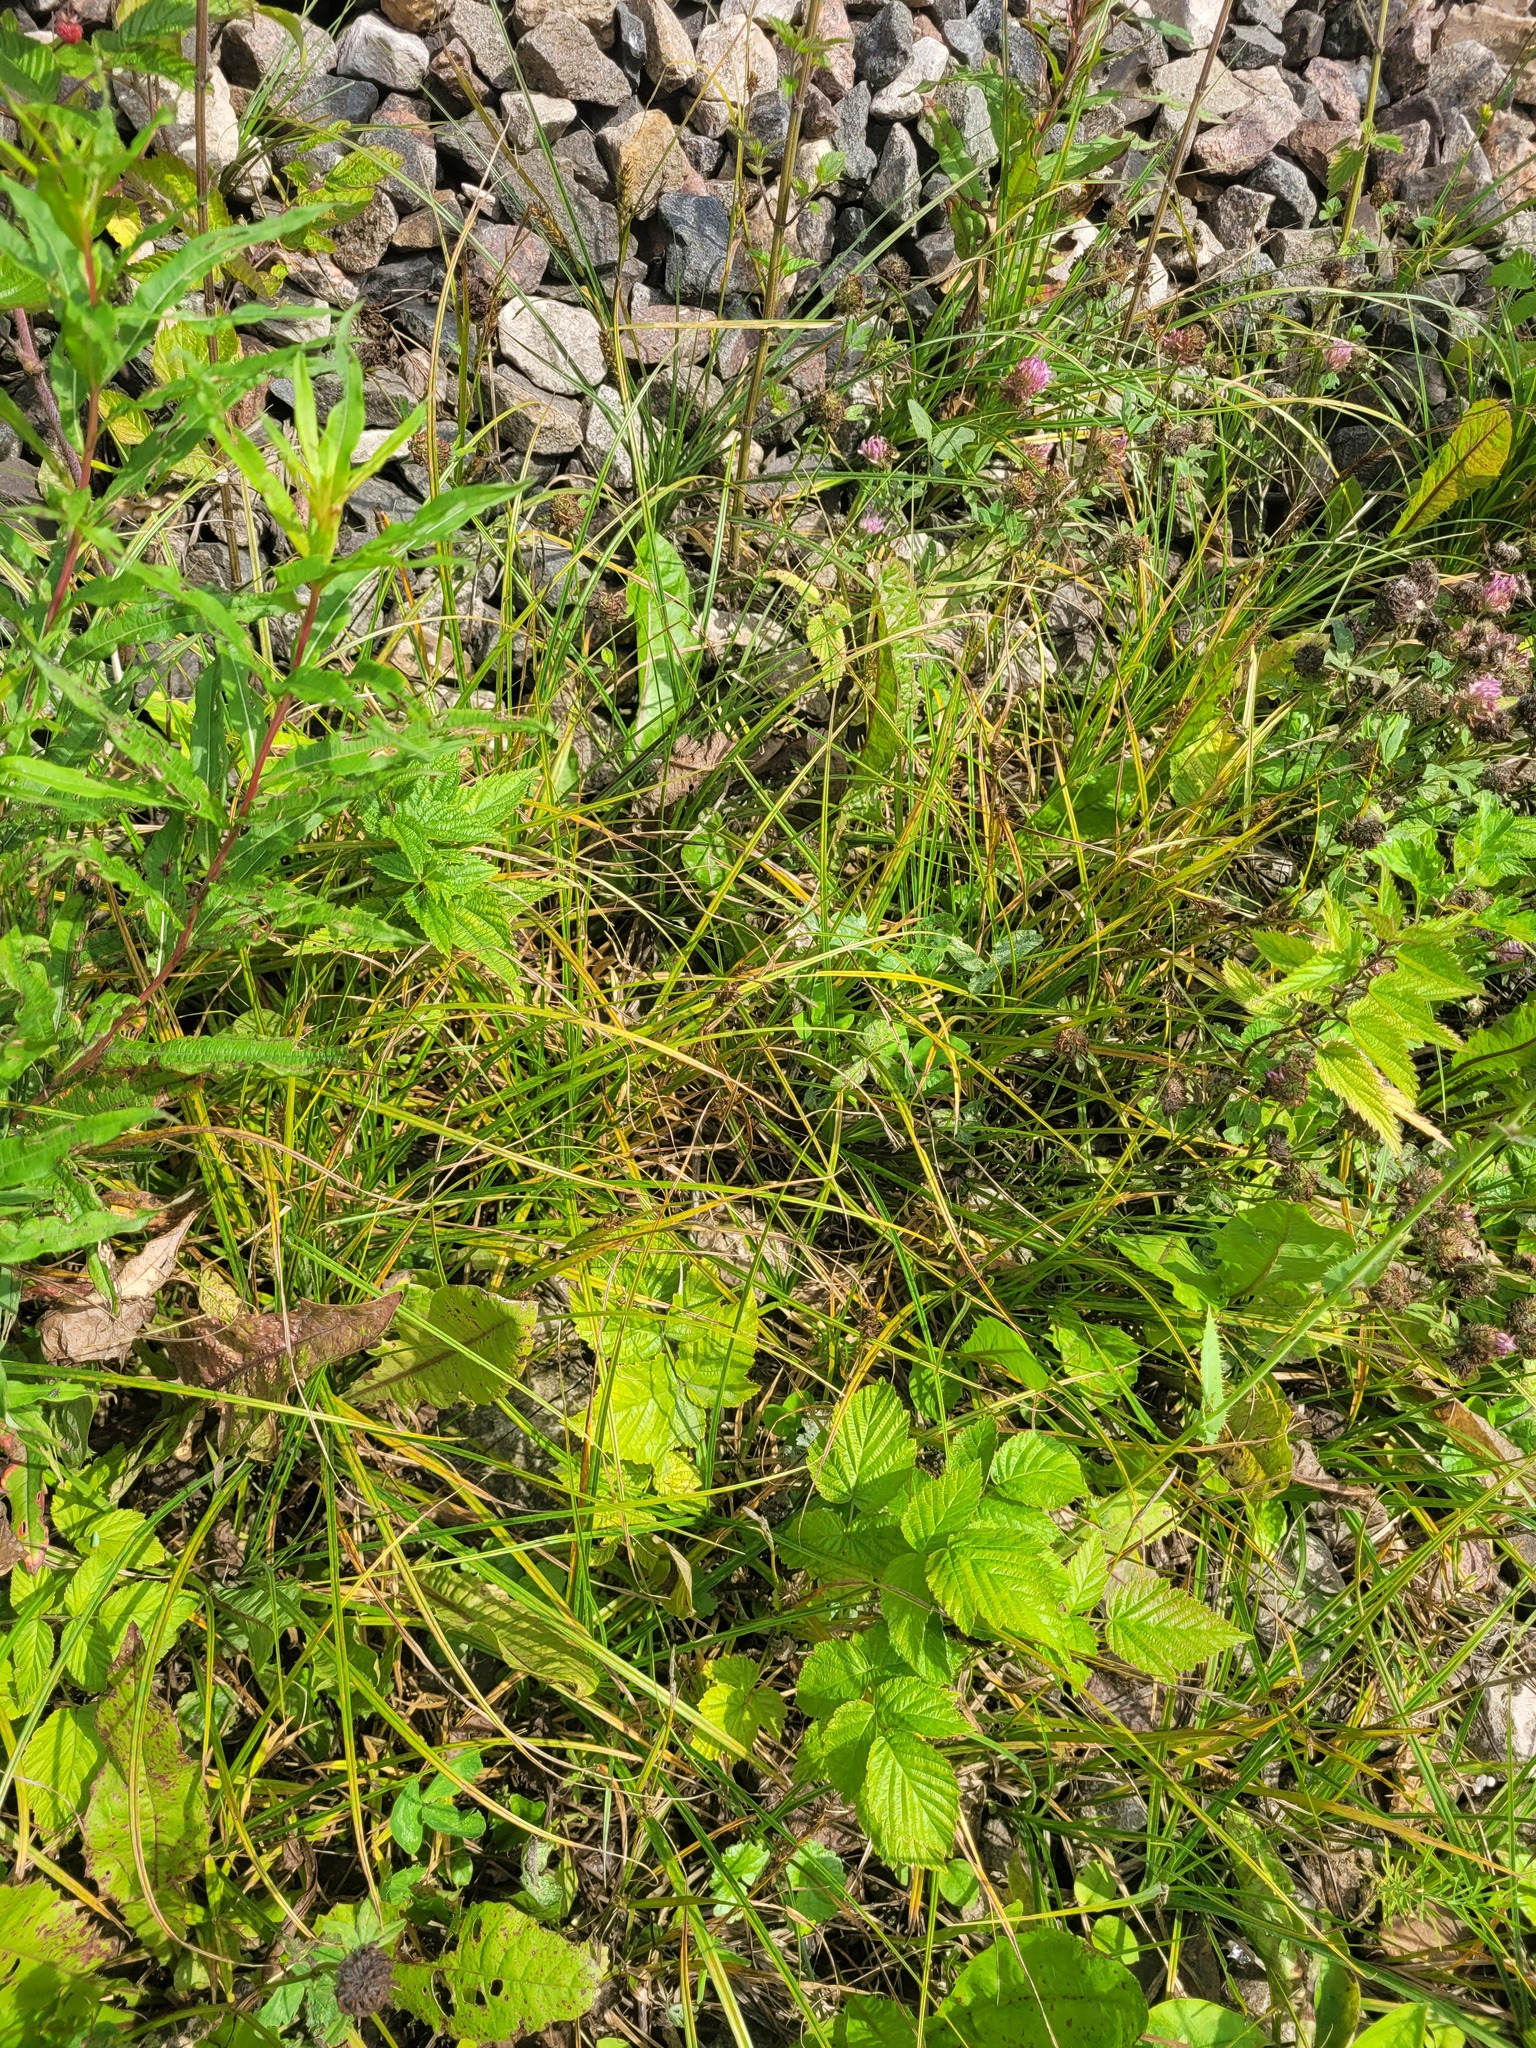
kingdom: Plantae
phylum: Tracheophyta
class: Liliopsida
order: Poales
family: Cyperaceae
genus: Carex
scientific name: Carex hirta
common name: Hairy sedge
